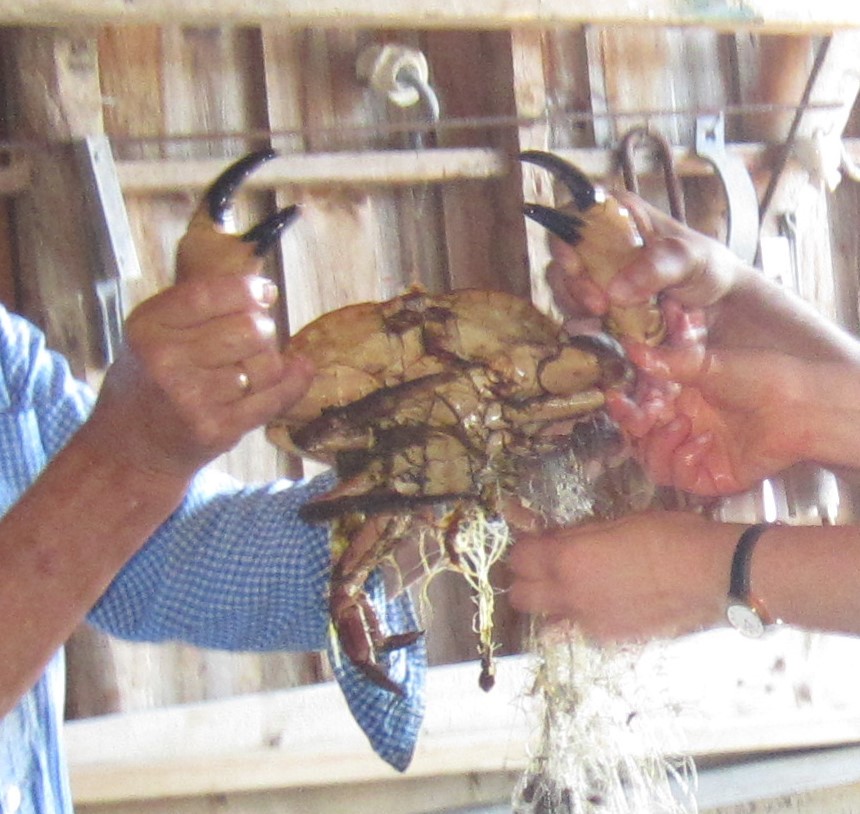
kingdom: Animalia
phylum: Arthropoda
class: Malacostraca
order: Decapoda
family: Cancridae
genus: Cancer
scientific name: Cancer pagurus
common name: Edible crab
